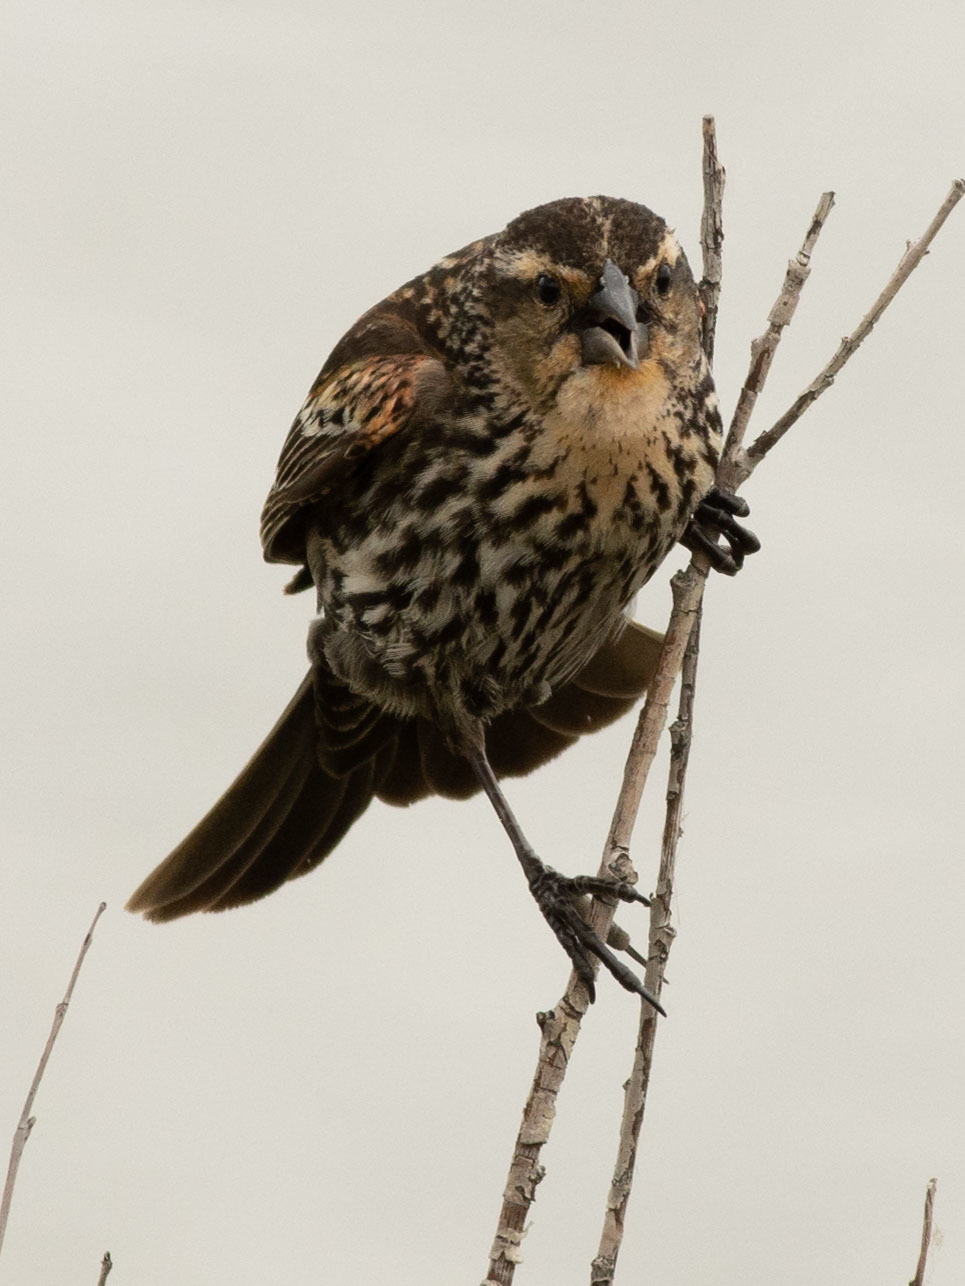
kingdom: Animalia
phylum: Chordata
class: Aves
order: Passeriformes
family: Icteridae
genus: Agelaius
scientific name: Agelaius phoeniceus
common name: Red-winged blackbird
